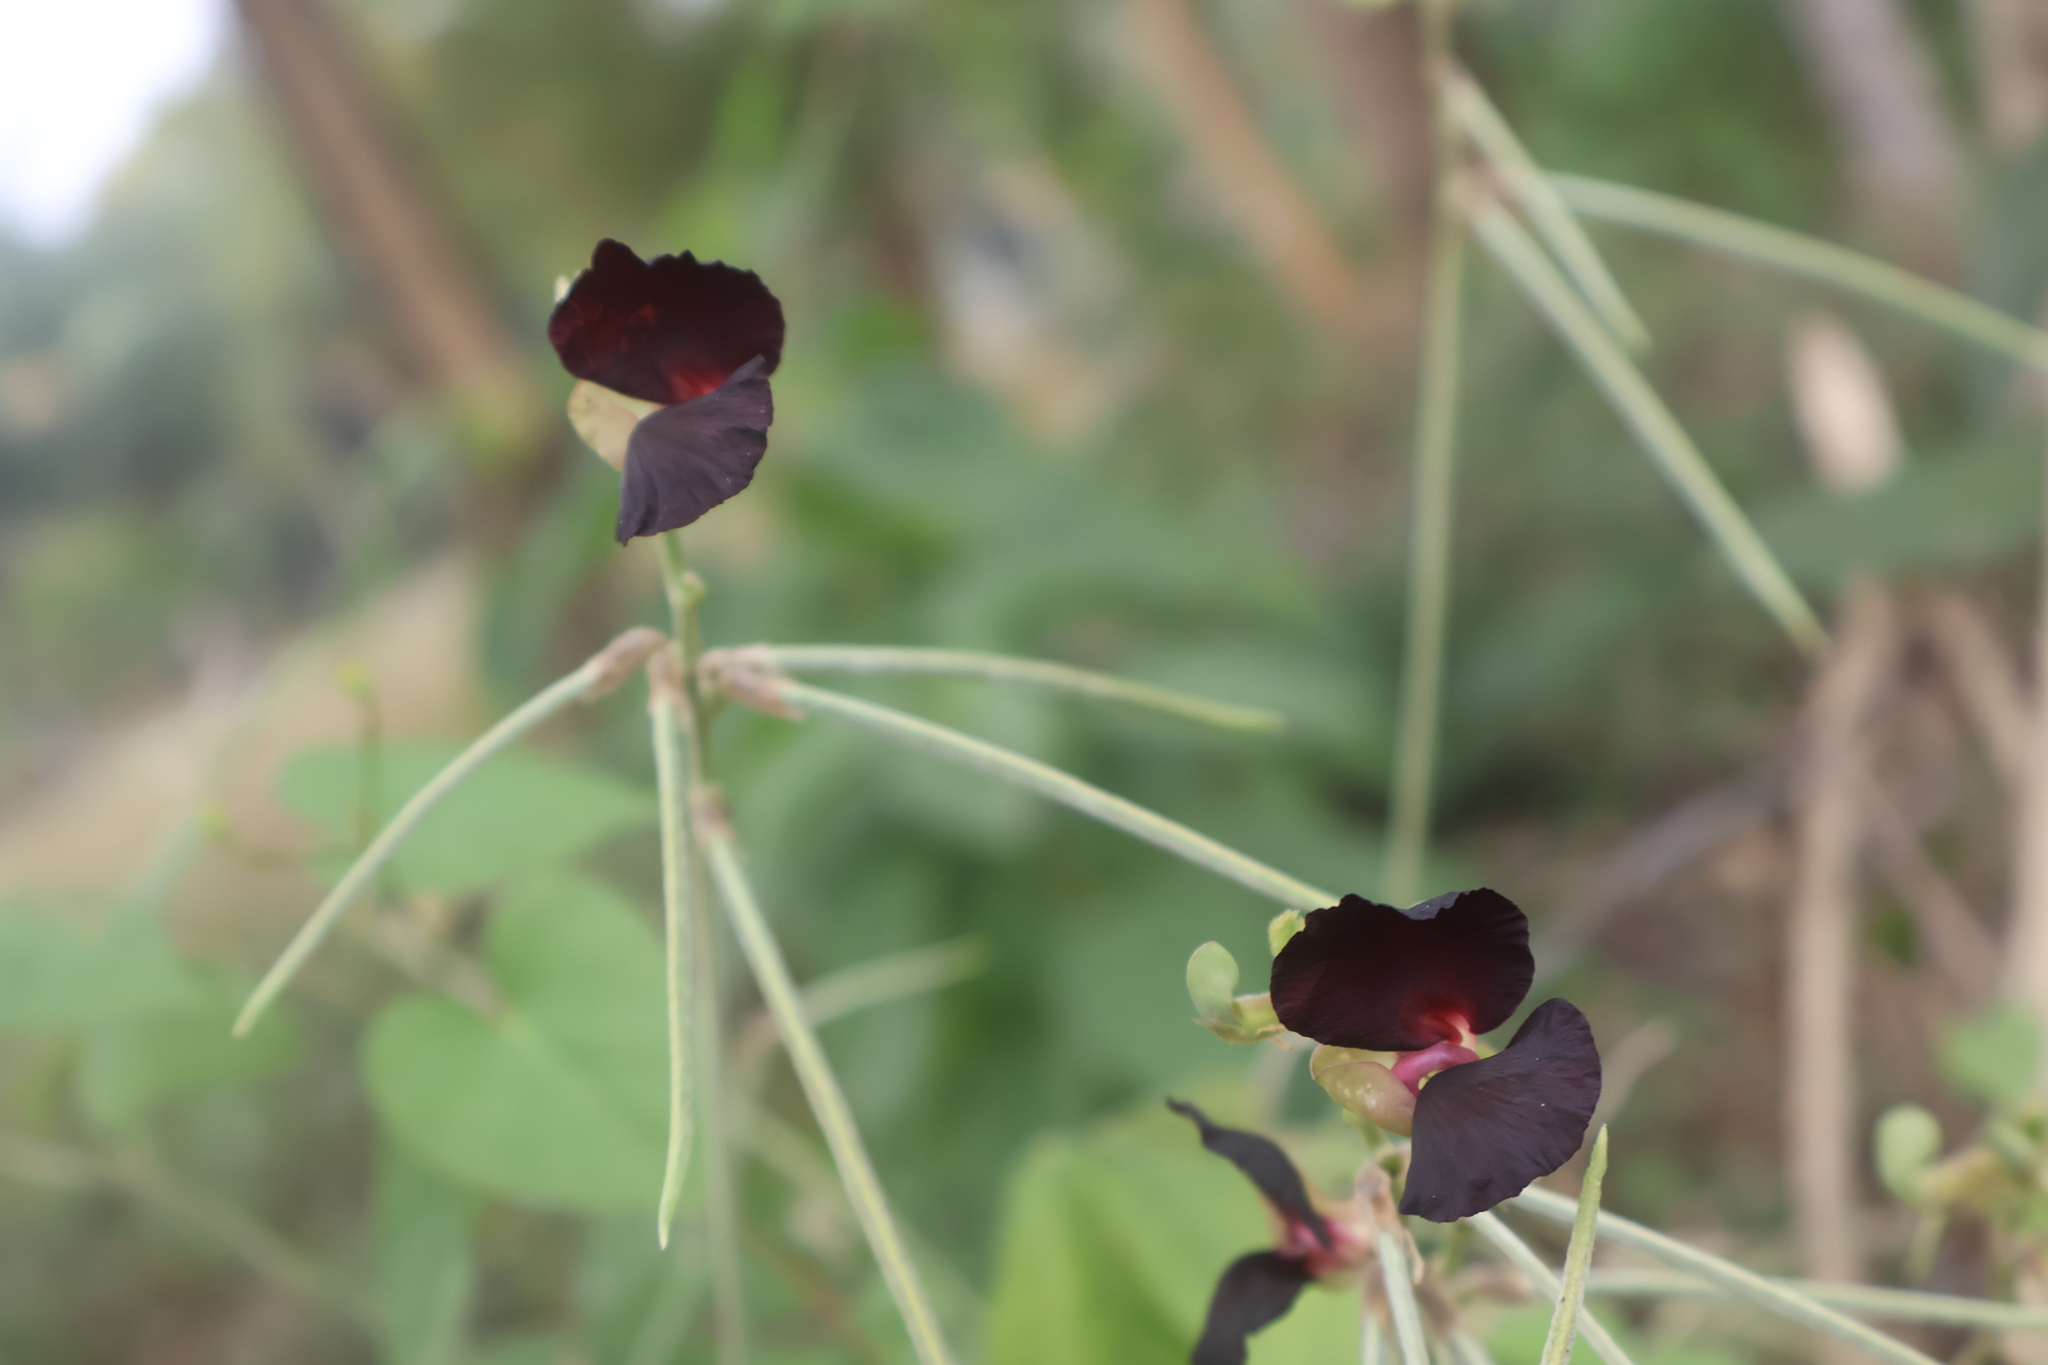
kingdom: Plantae
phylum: Tracheophyta
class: Magnoliopsida
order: Fabales
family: Fabaceae
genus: Macroptilium
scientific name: Macroptilium atropurpureum
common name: Purple bushbean
